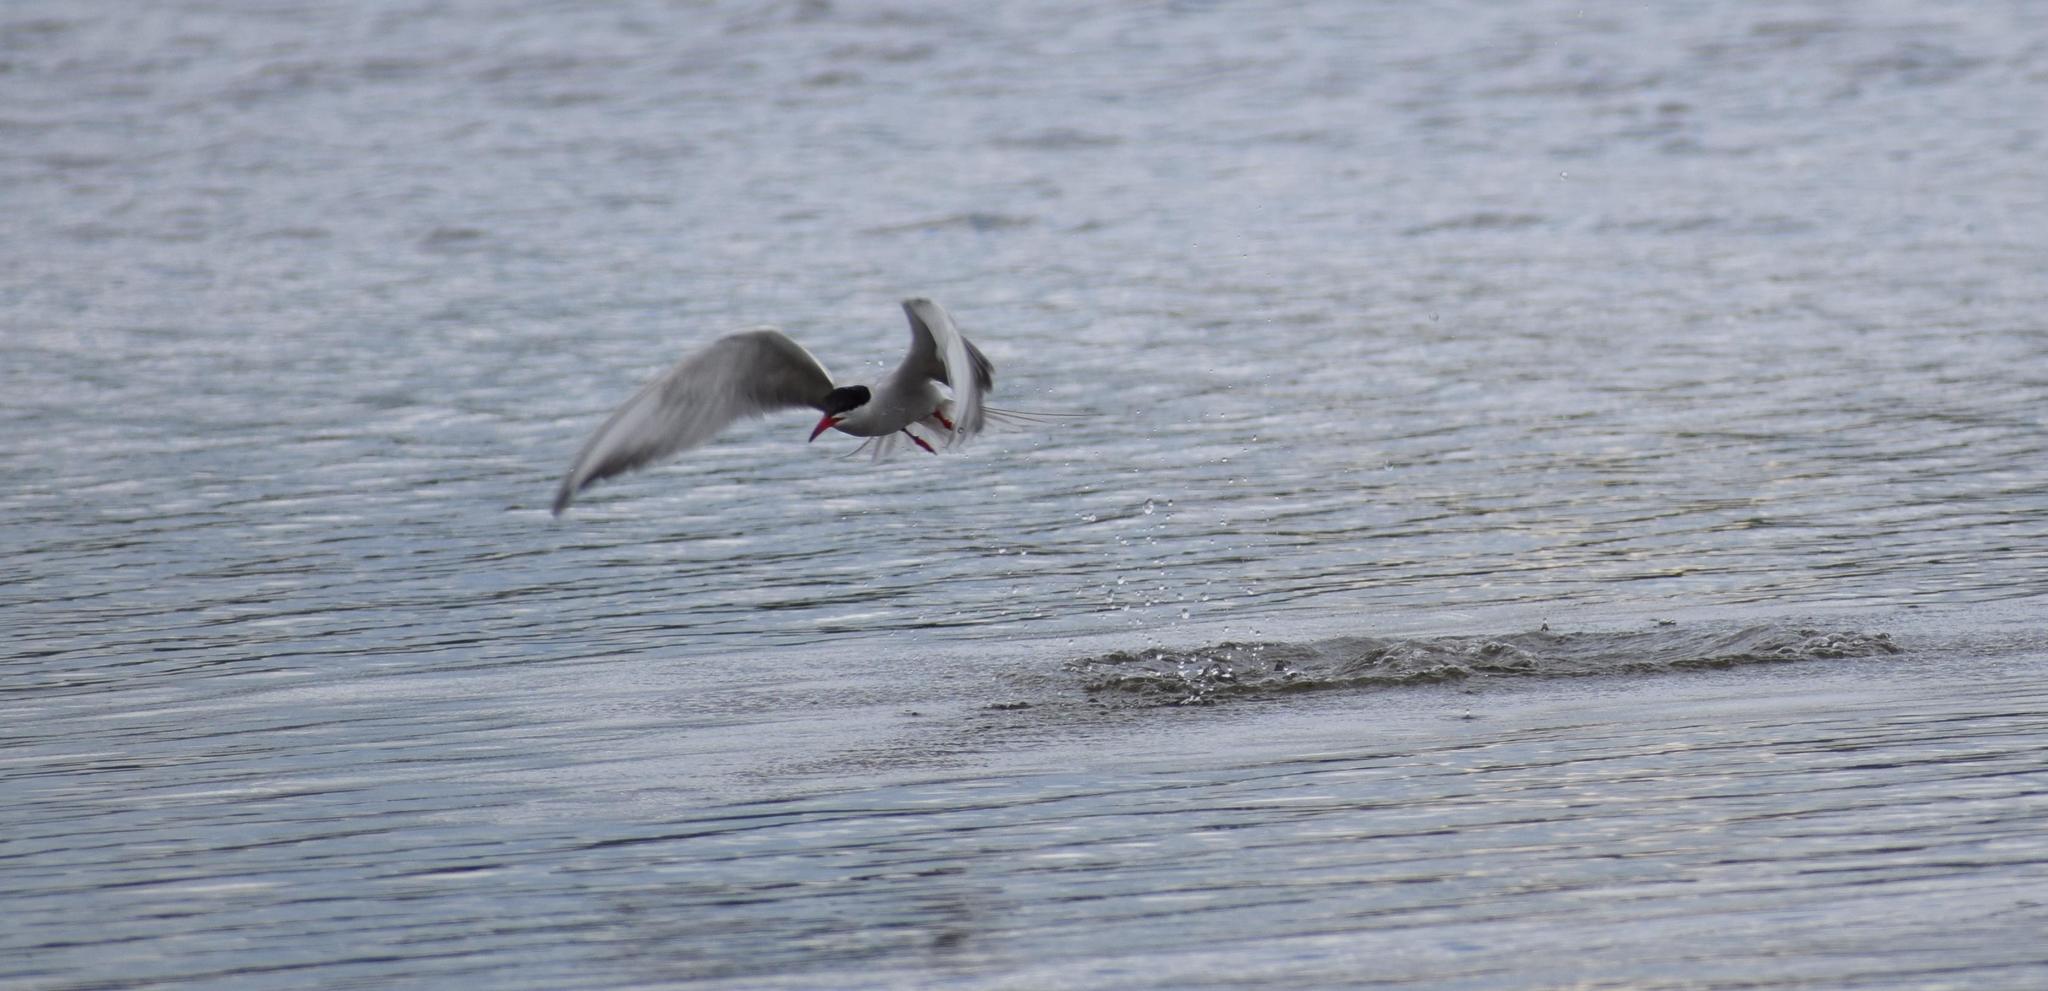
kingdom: Animalia
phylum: Chordata
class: Aves
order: Charadriiformes
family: Laridae
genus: Sterna
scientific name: Sterna hirundo
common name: Common tern
